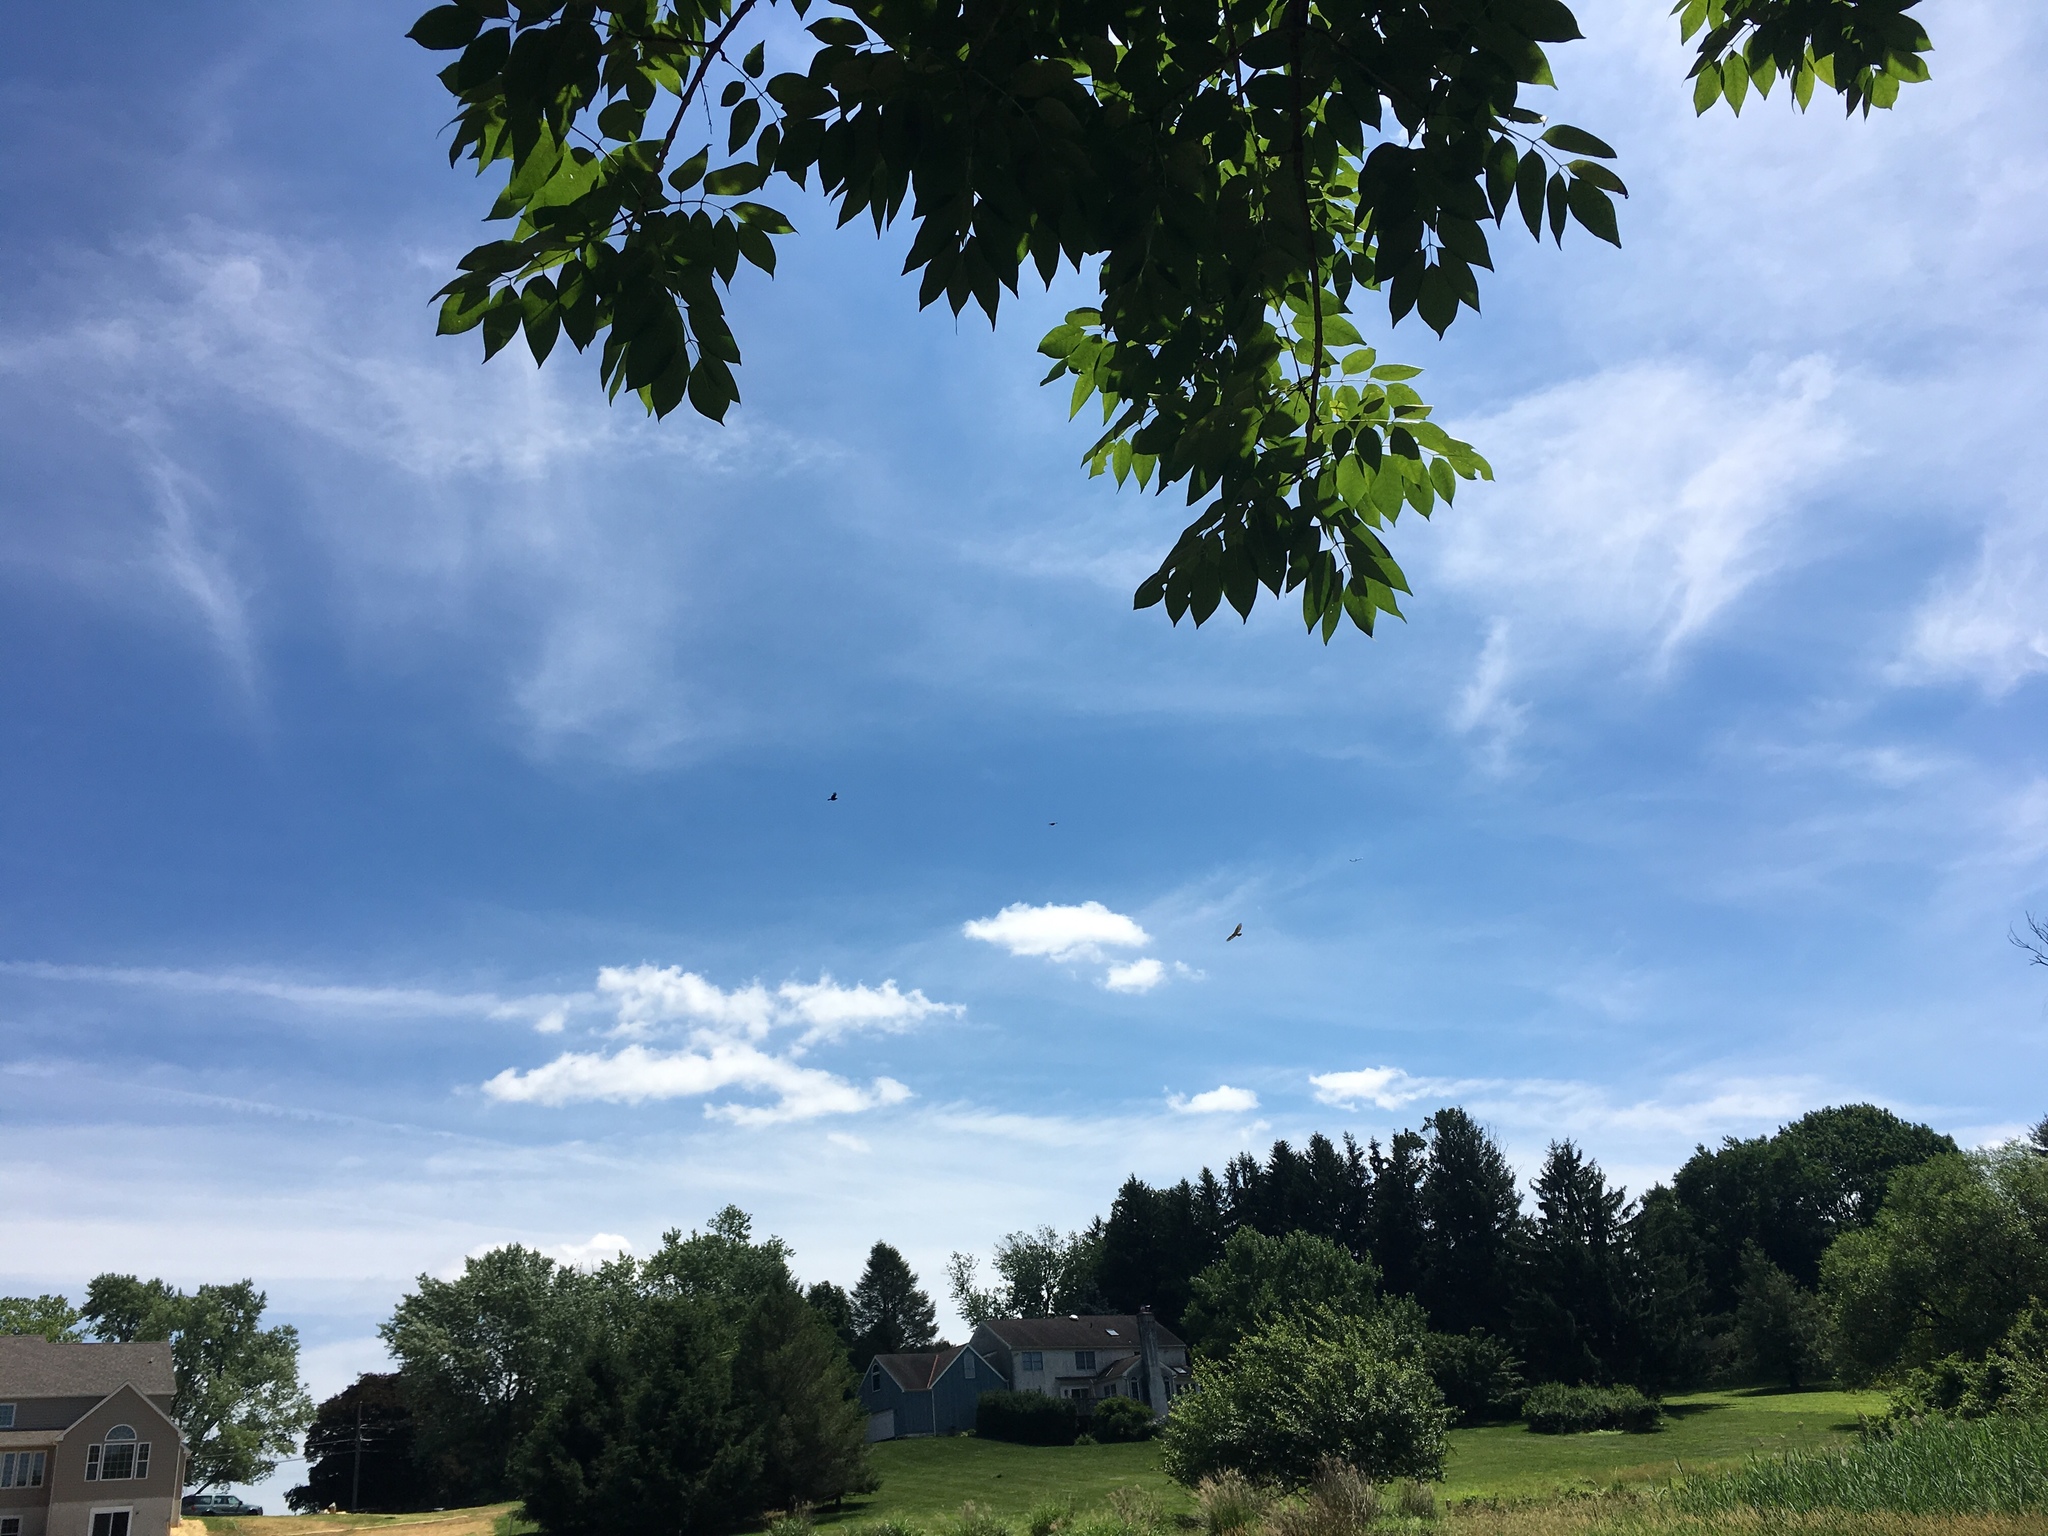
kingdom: Animalia
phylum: Chordata
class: Aves
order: Accipitriformes
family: Accipitridae
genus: Buteo
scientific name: Buteo jamaicensis
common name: Red-tailed hawk
